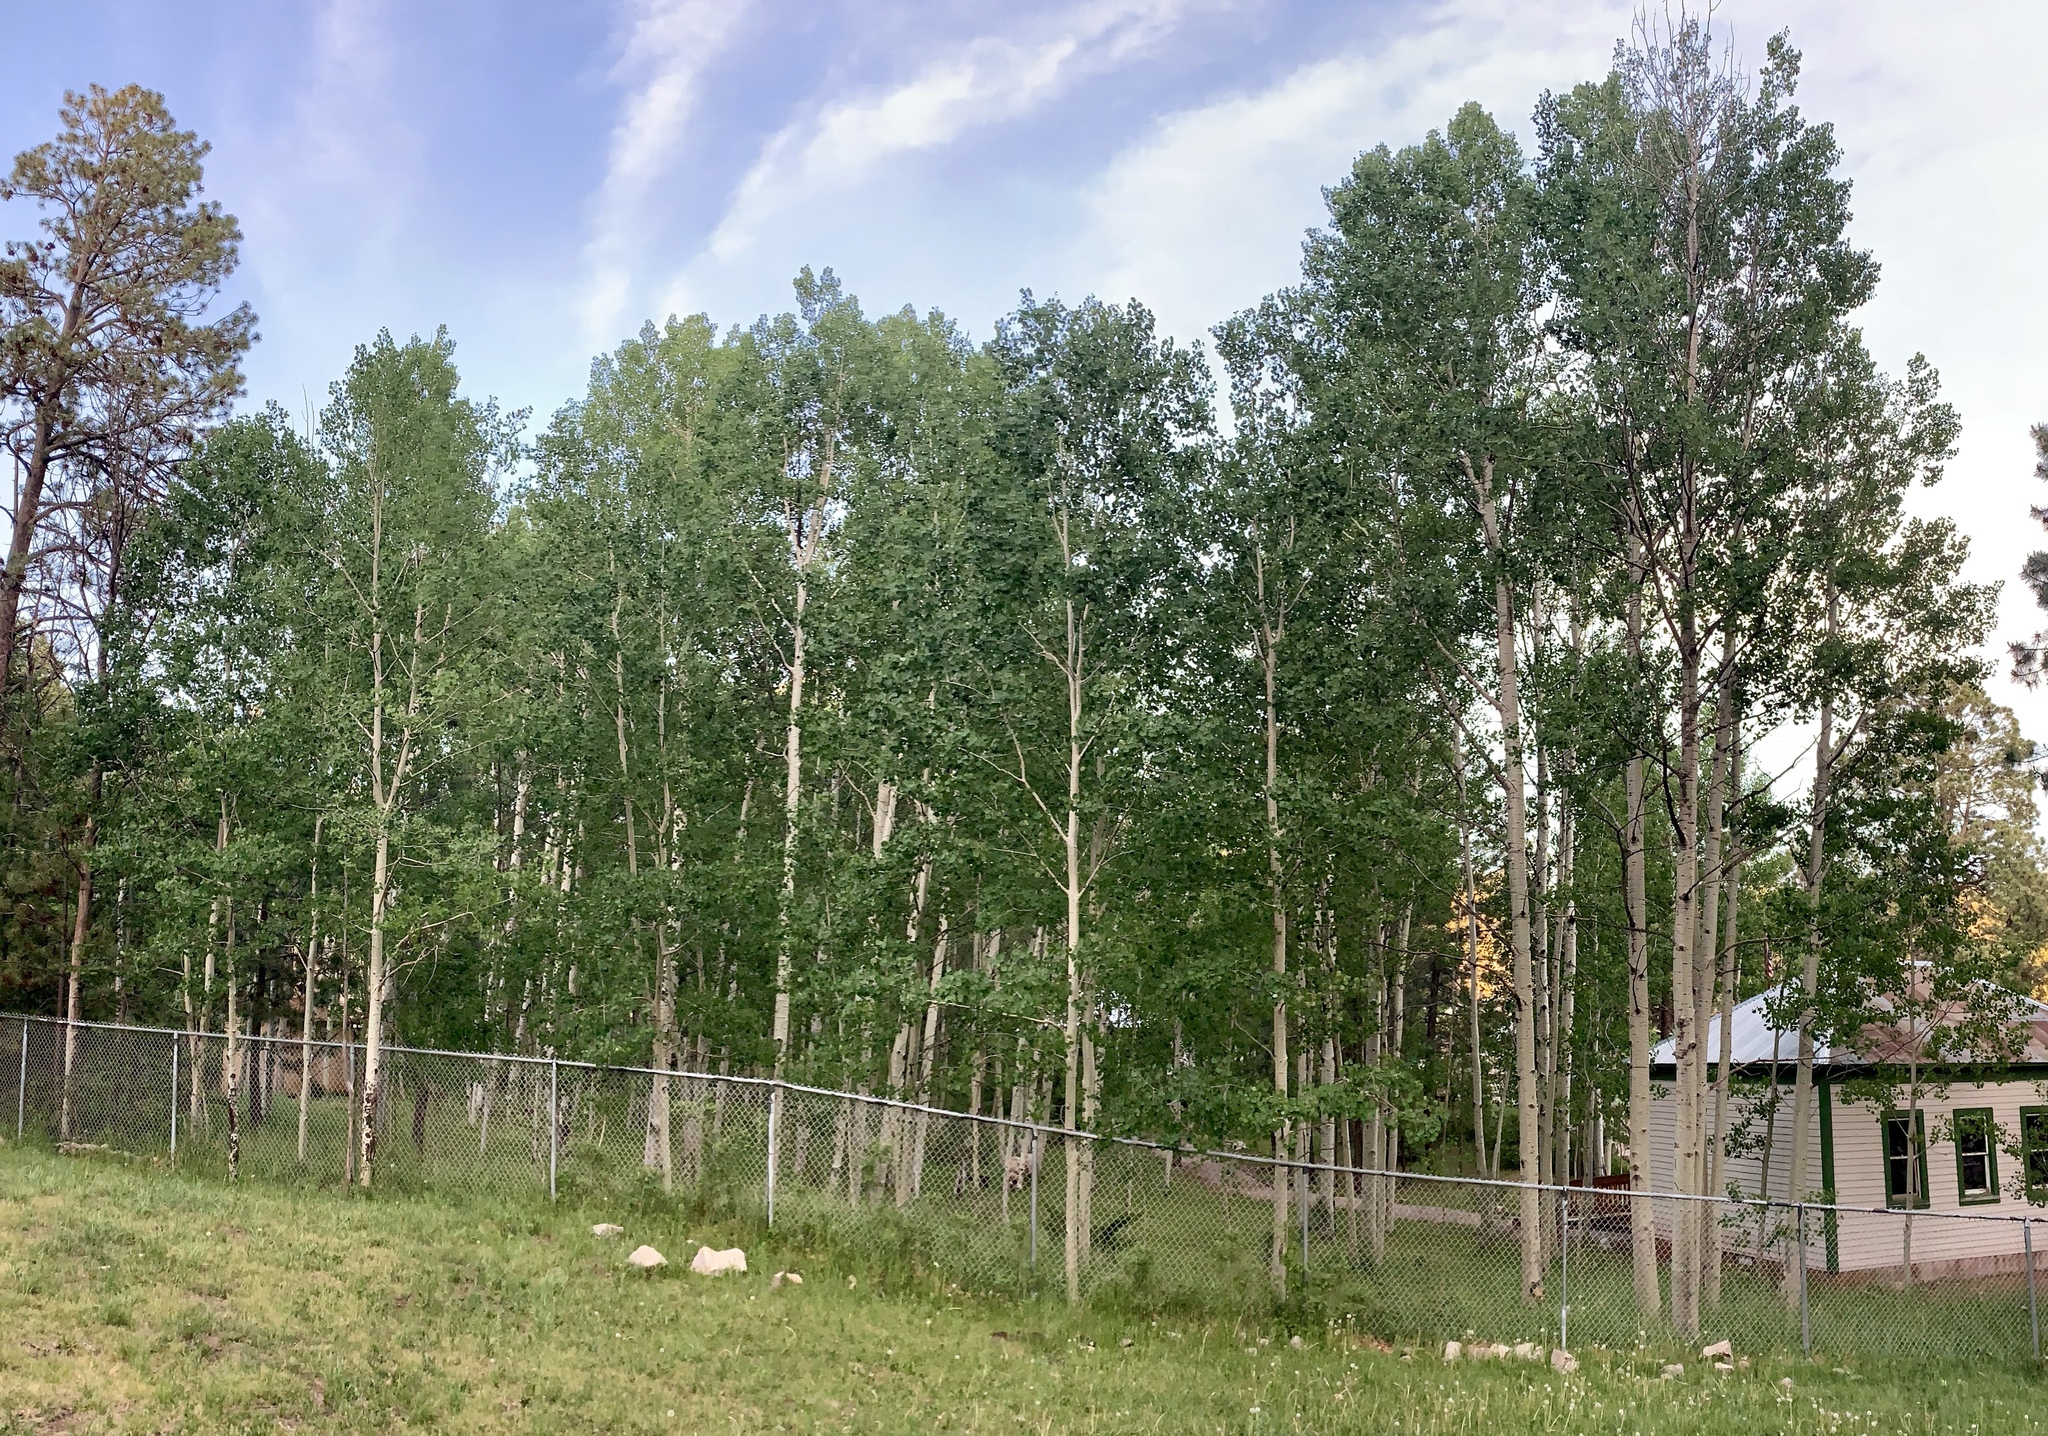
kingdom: Plantae
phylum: Tracheophyta
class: Magnoliopsida
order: Malpighiales
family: Salicaceae
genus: Populus
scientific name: Populus tremuloides
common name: Quaking aspen
